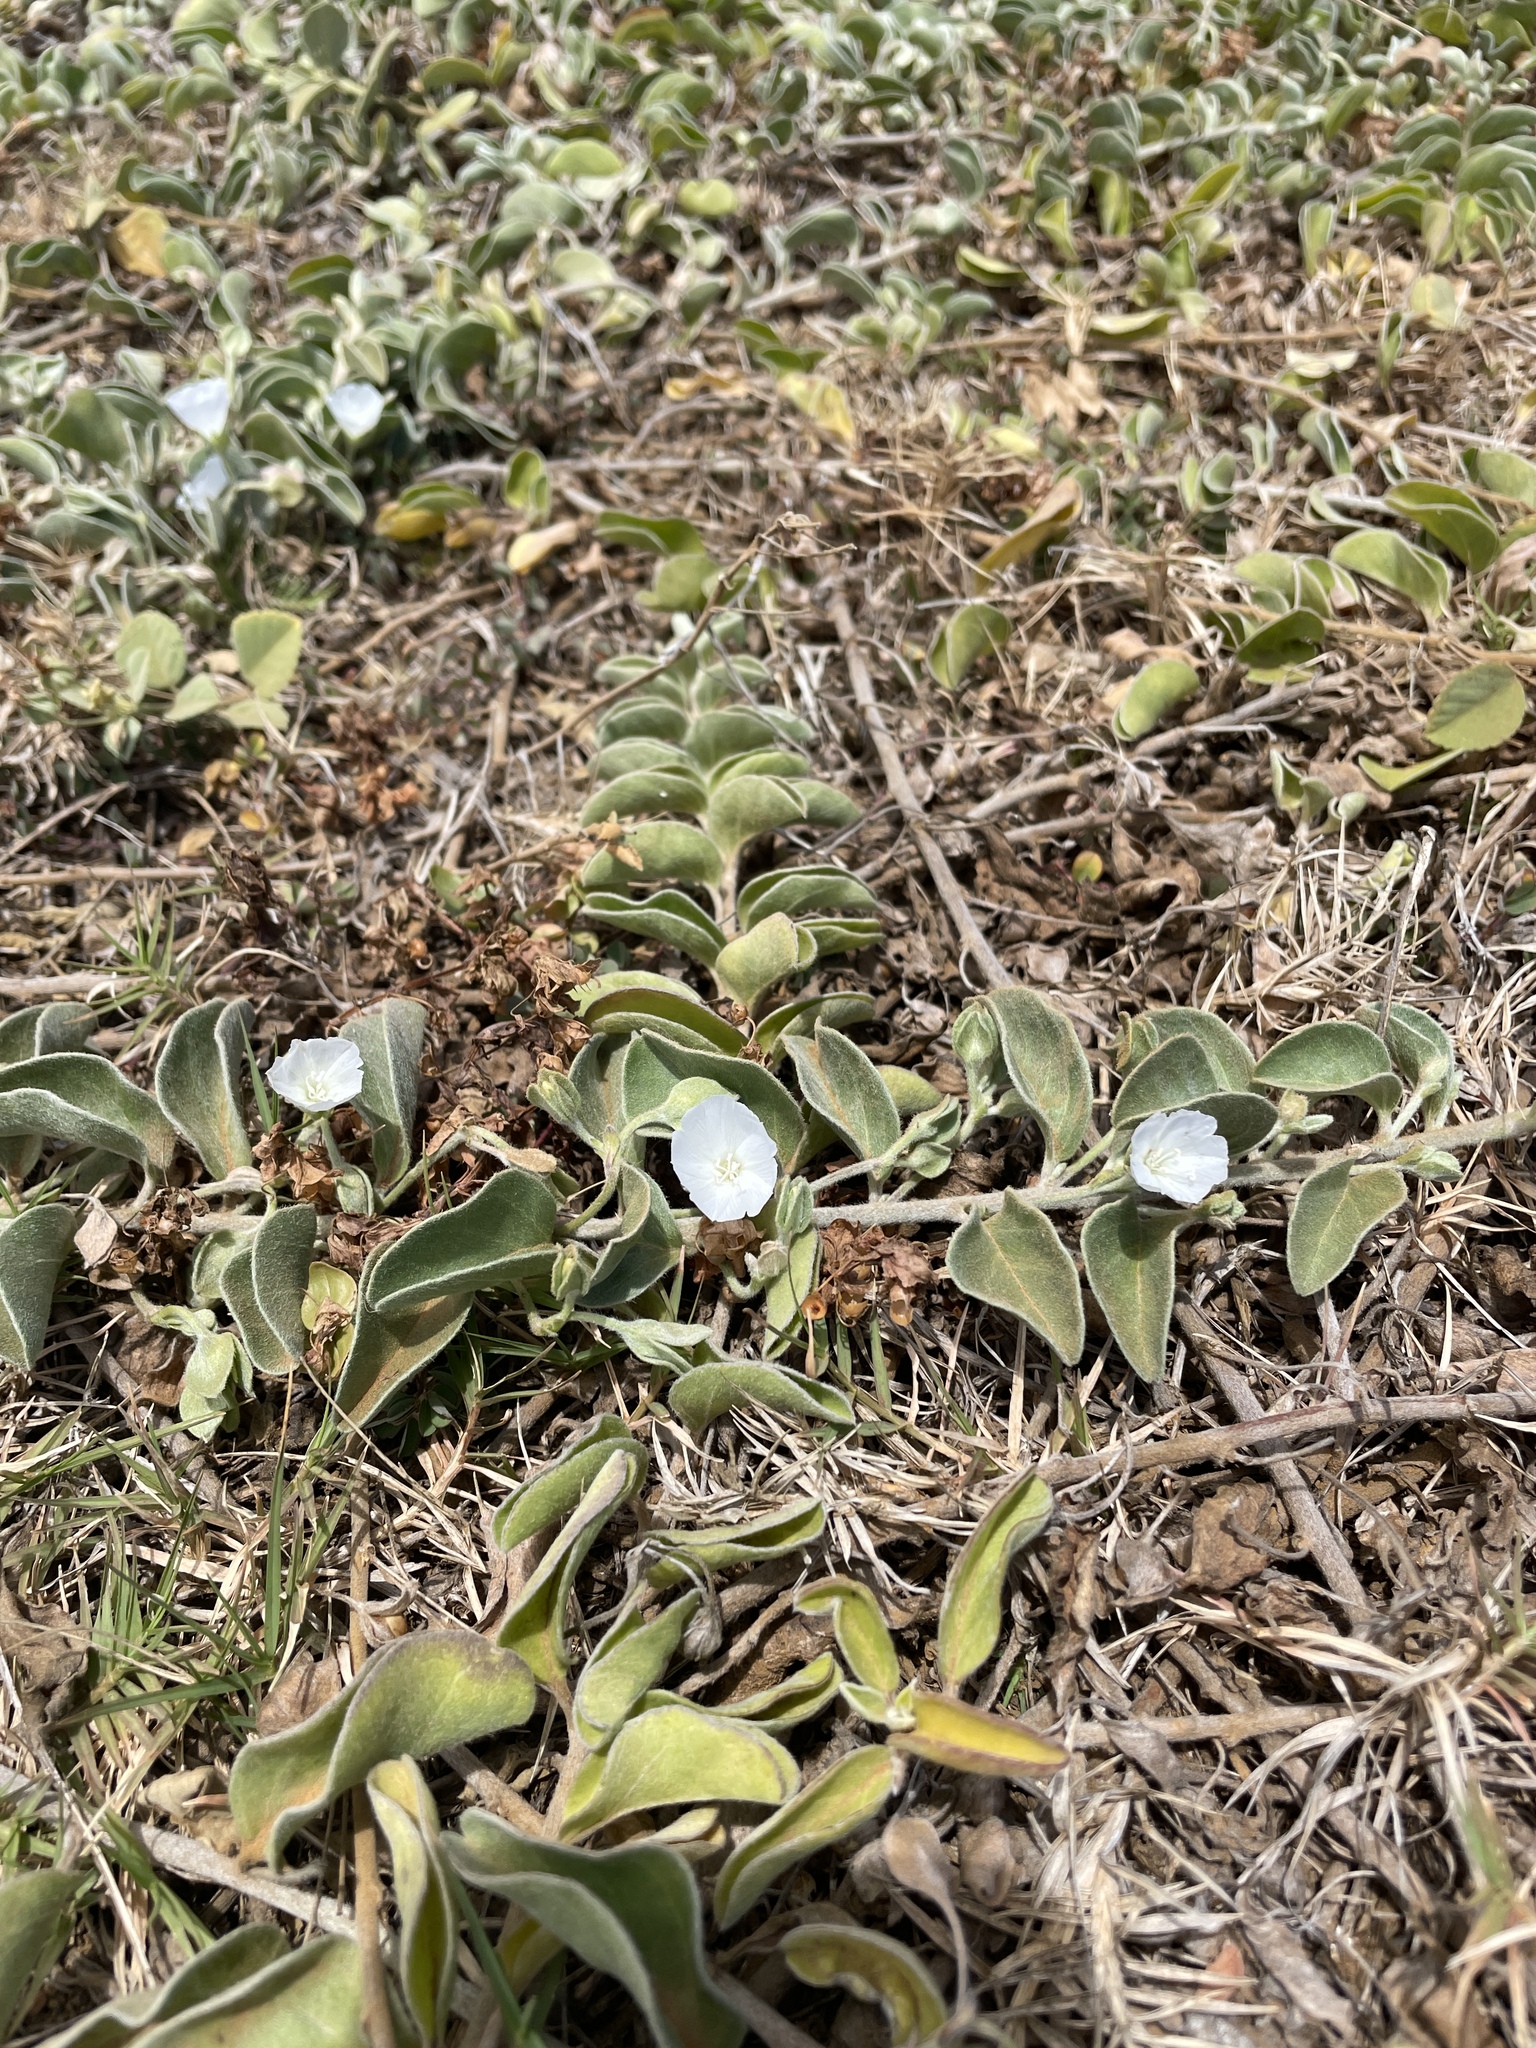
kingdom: Plantae
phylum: Tracheophyta
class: Magnoliopsida
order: Solanales
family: Convolvulaceae
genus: Jacquemontia
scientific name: Jacquemontia sandwicensis
